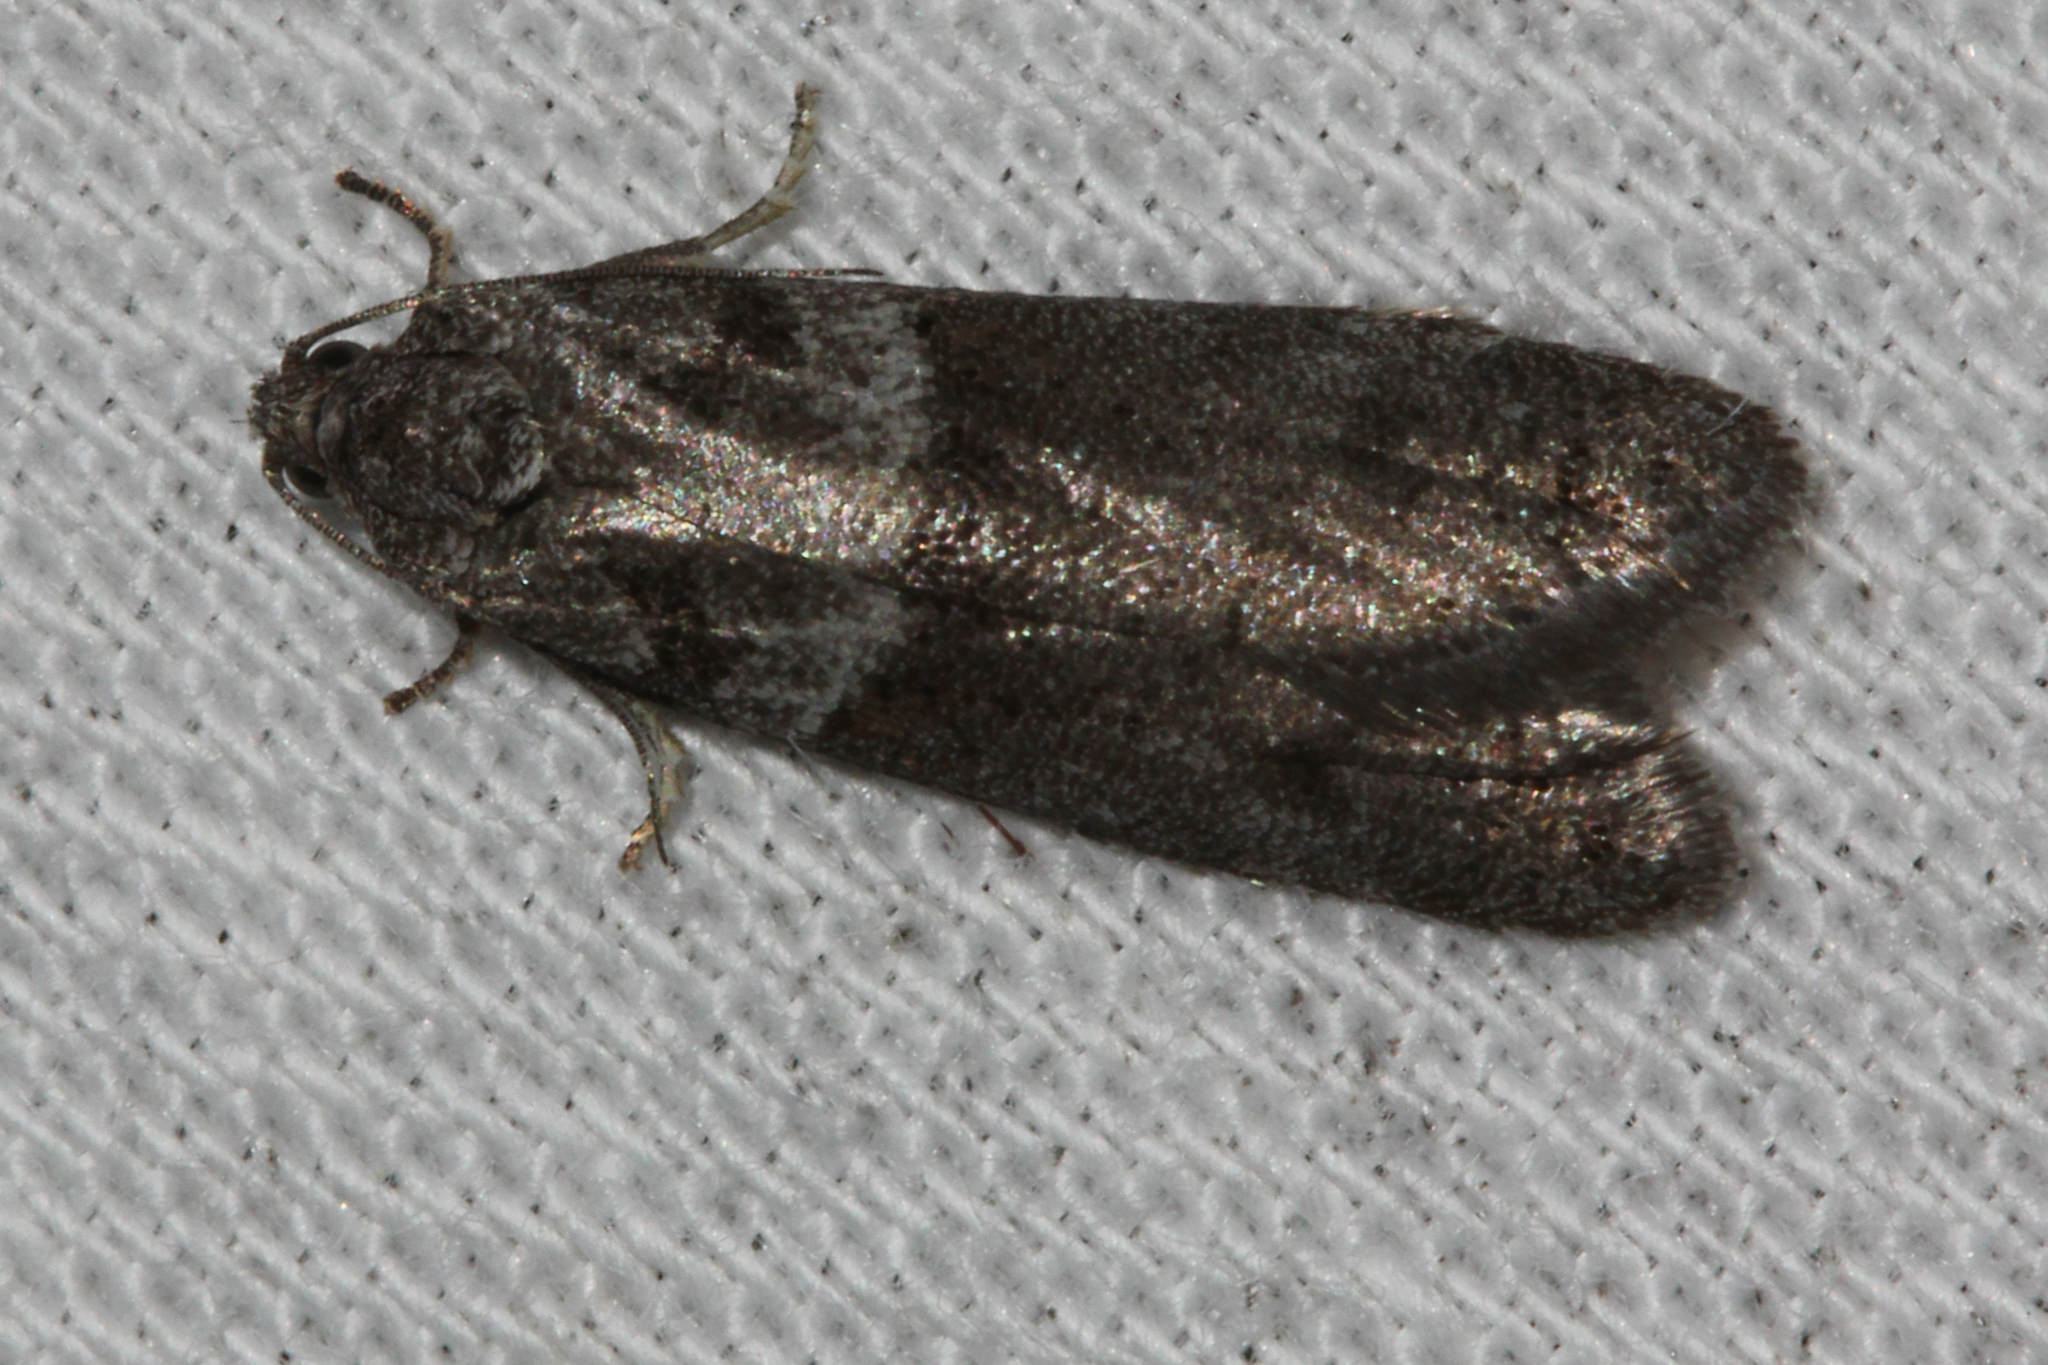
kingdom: Animalia
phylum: Arthropoda
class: Insecta
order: Lepidoptera
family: Tortricidae
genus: Tortricodes
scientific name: Tortricodes alternella
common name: Winter shade
